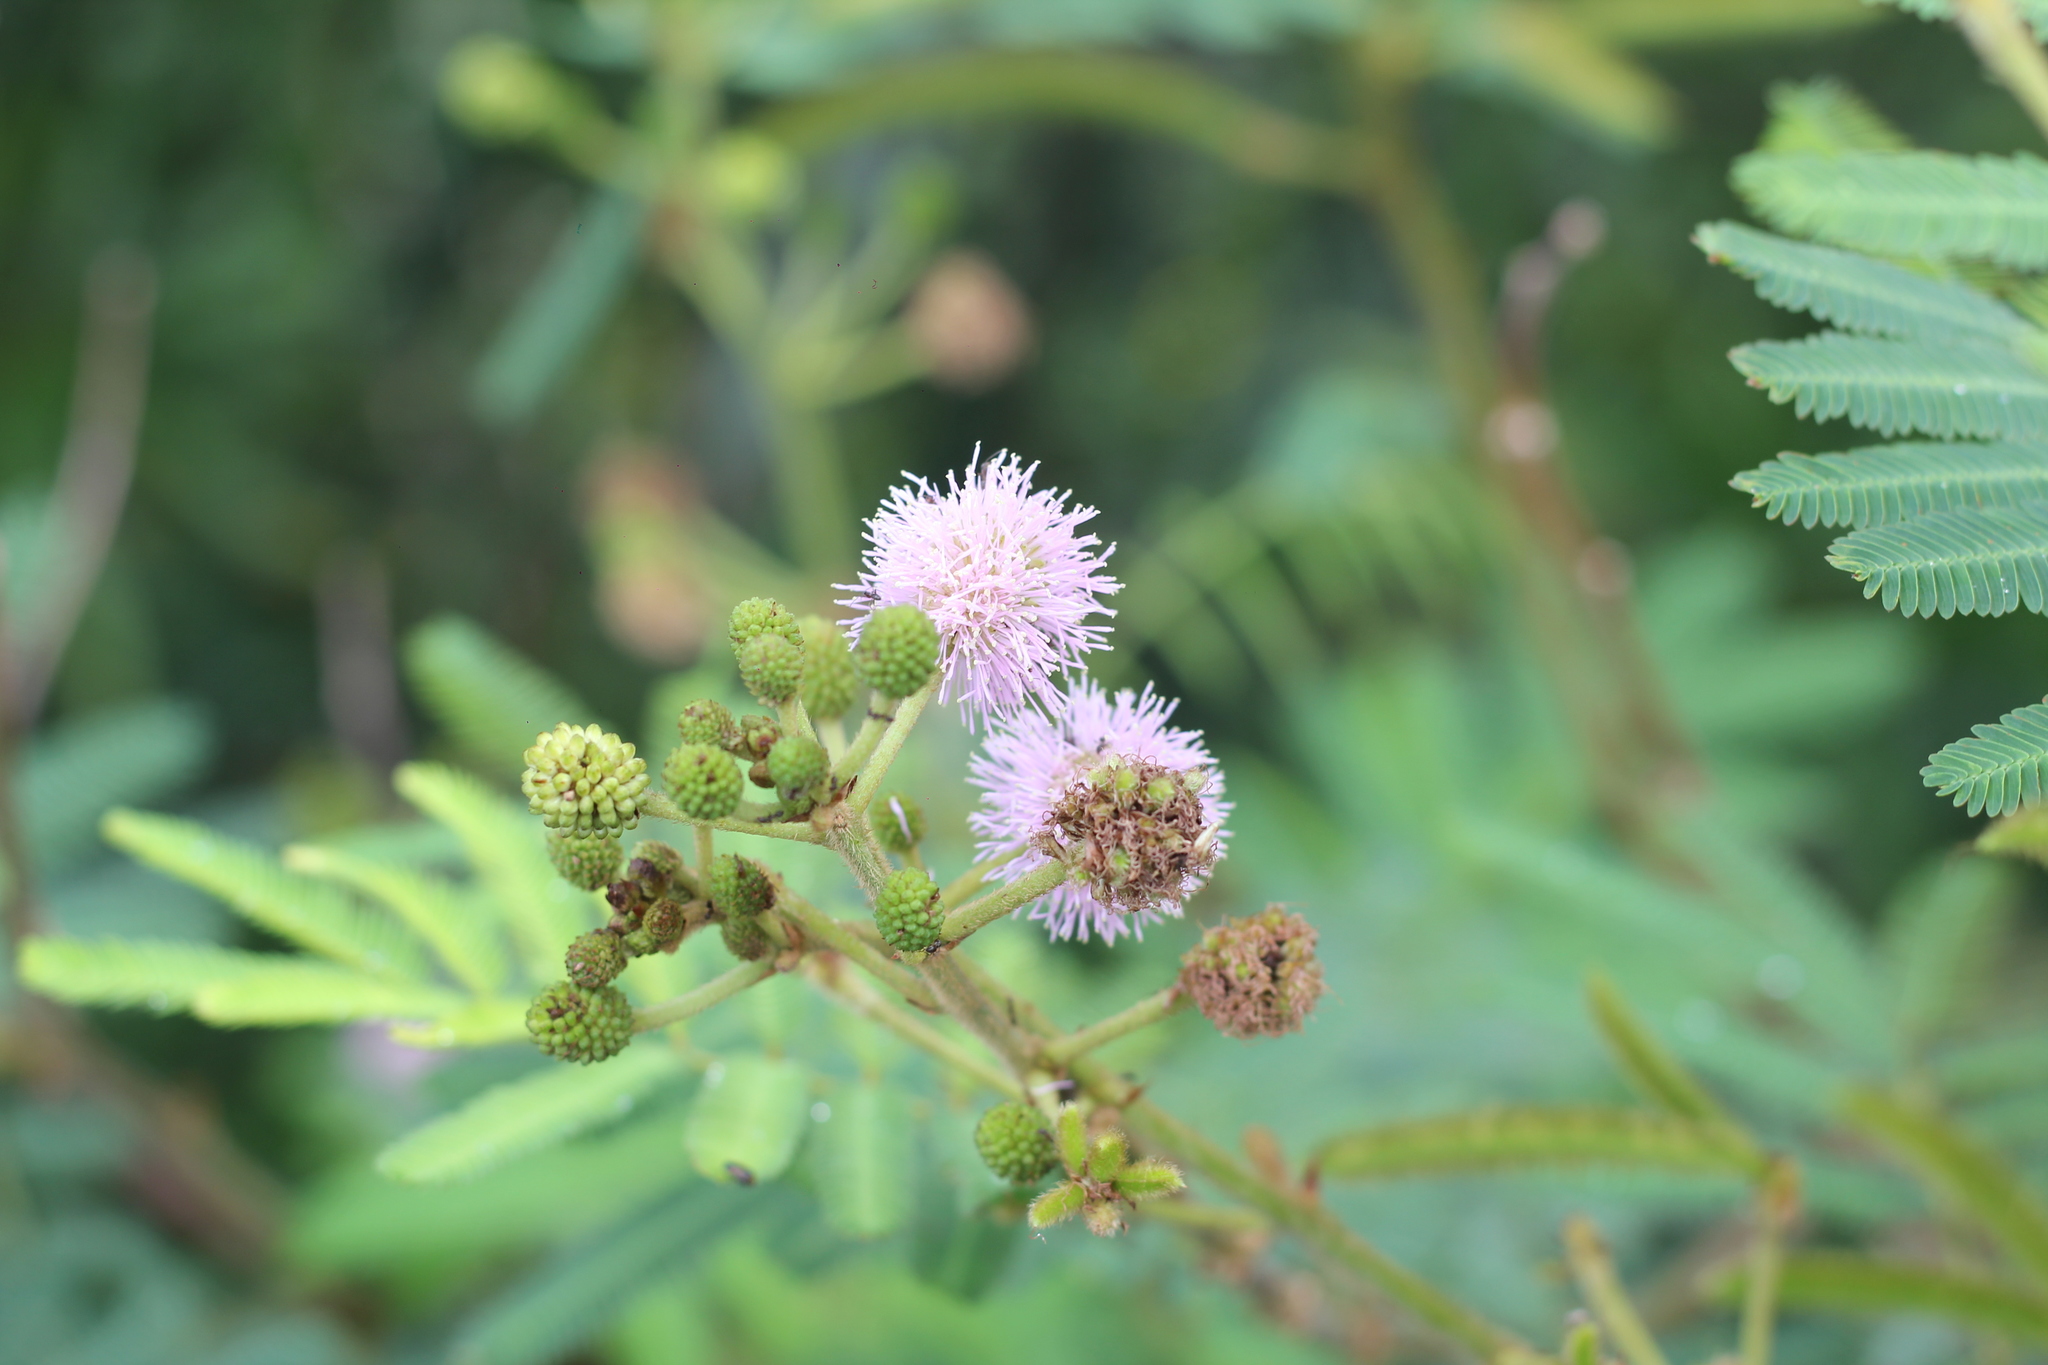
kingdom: Plantae
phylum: Tracheophyta
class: Magnoliopsida
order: Fabales
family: Fabaceae
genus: Mimosa
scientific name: Mimosa pigra
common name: Black mimosa
